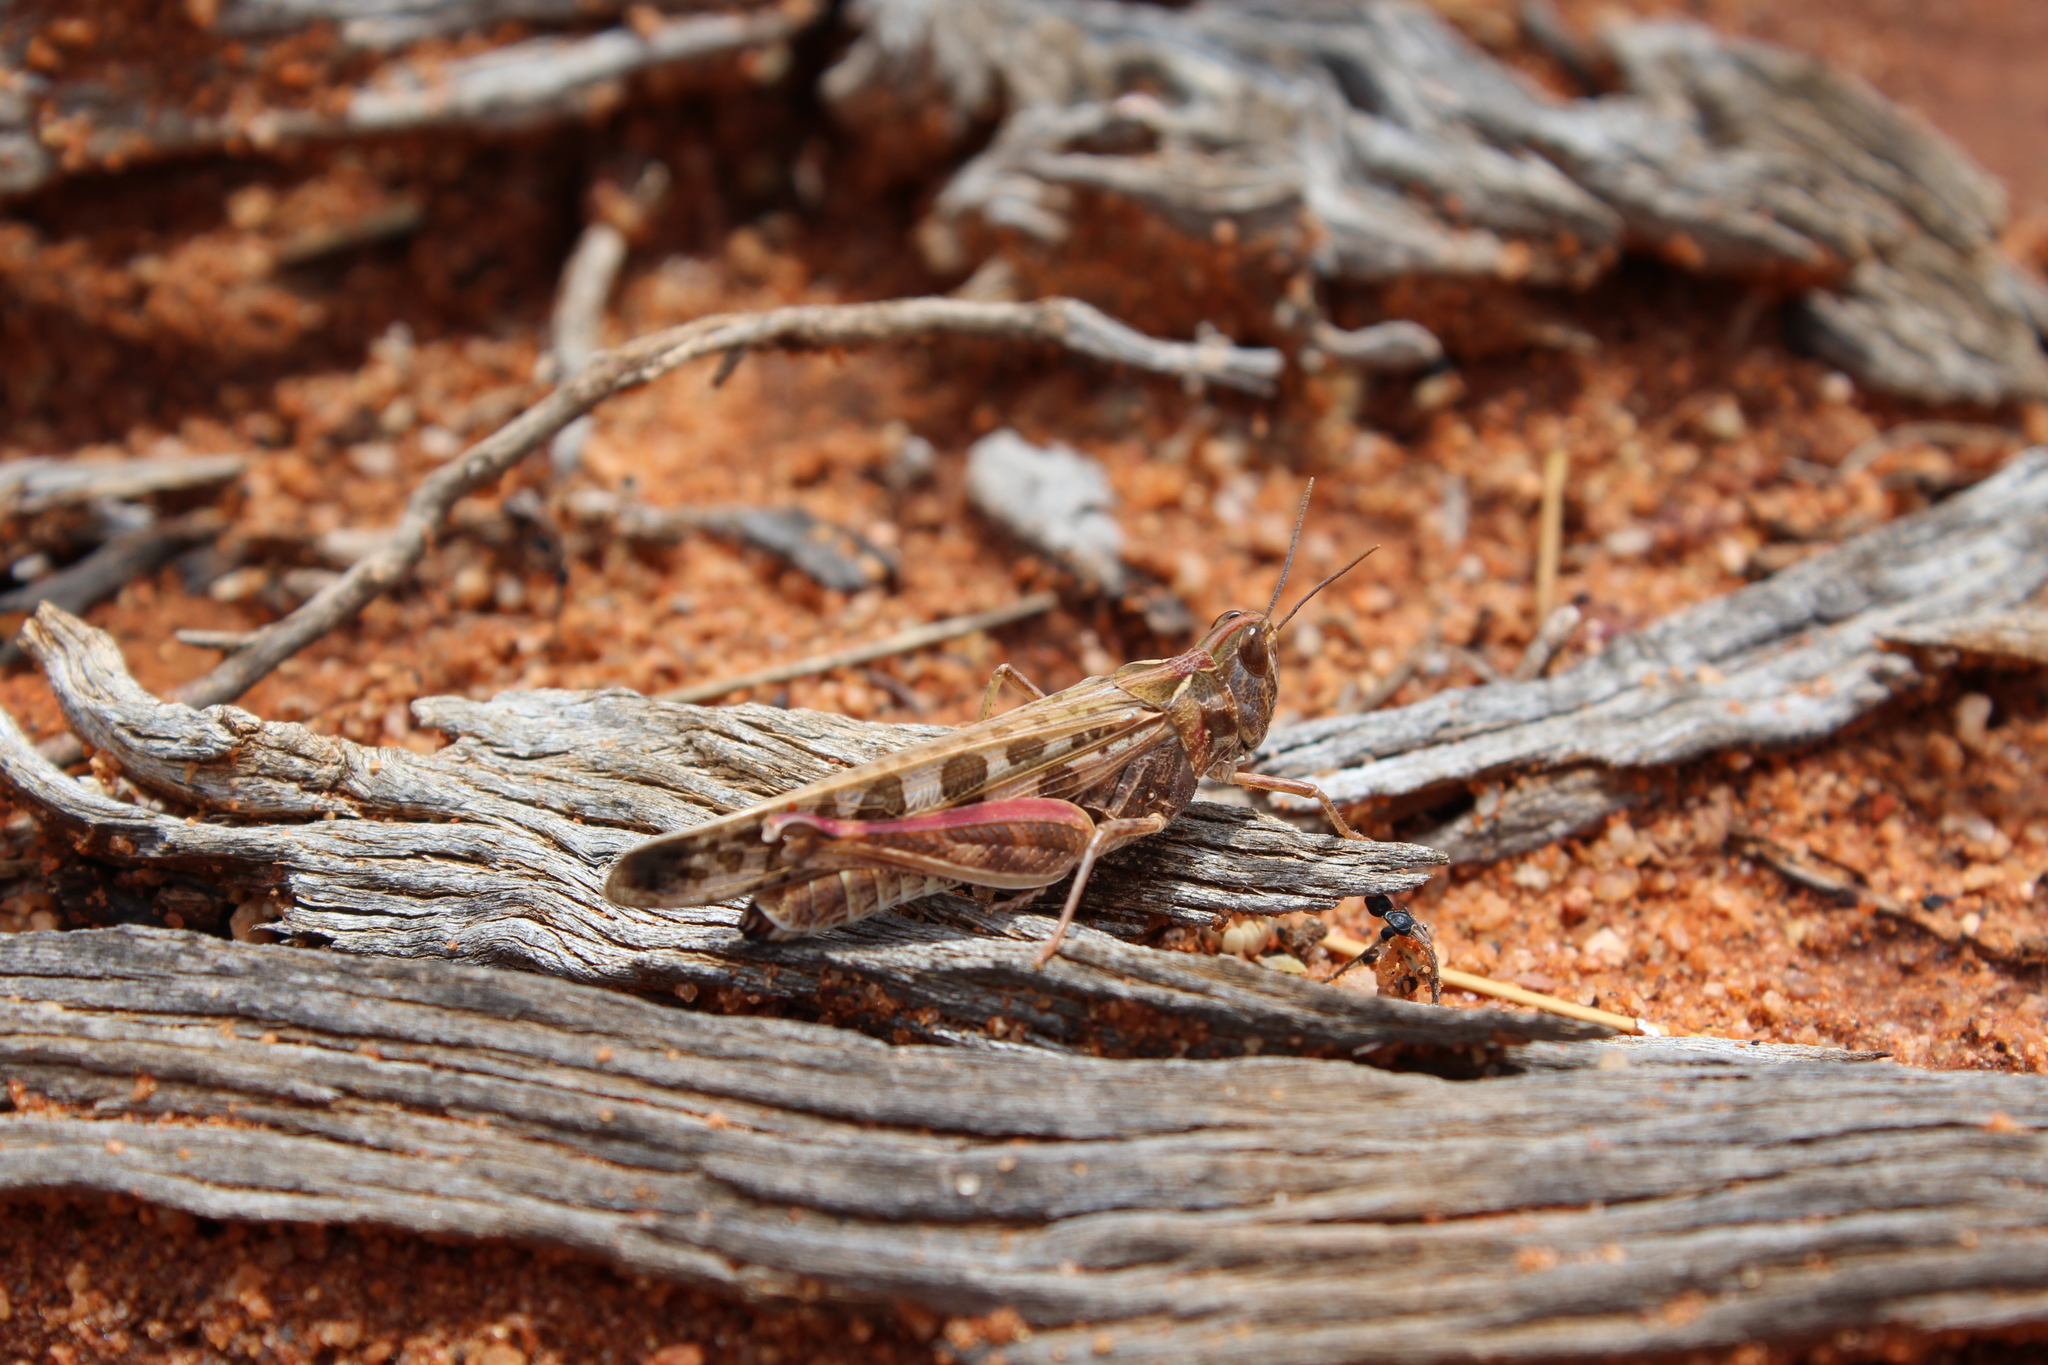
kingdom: Animalia
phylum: Arthropoda
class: Insecta
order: Orthoptera
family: Acrididae
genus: Chortoicetes
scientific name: Chortoicetes terminifera
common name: Australian plague locust
